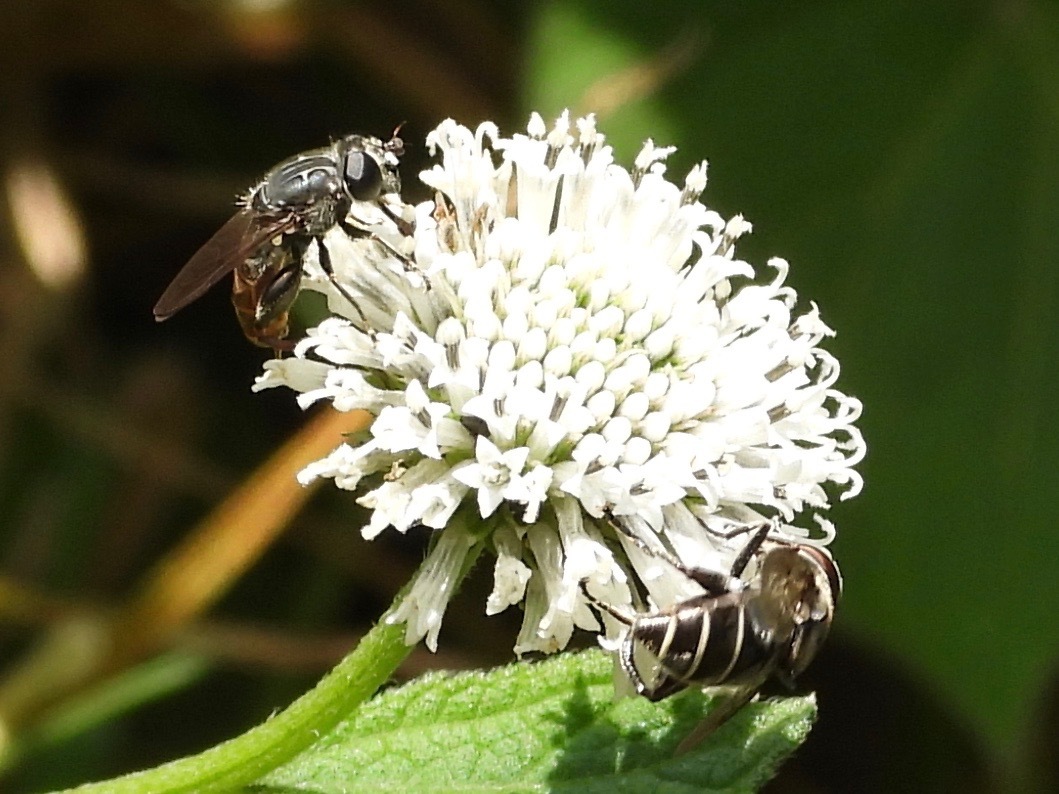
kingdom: Animalia
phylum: Arthropoda
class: Insecta
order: Diptera
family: Syrphidae
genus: Palpada
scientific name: Palpada furcata
